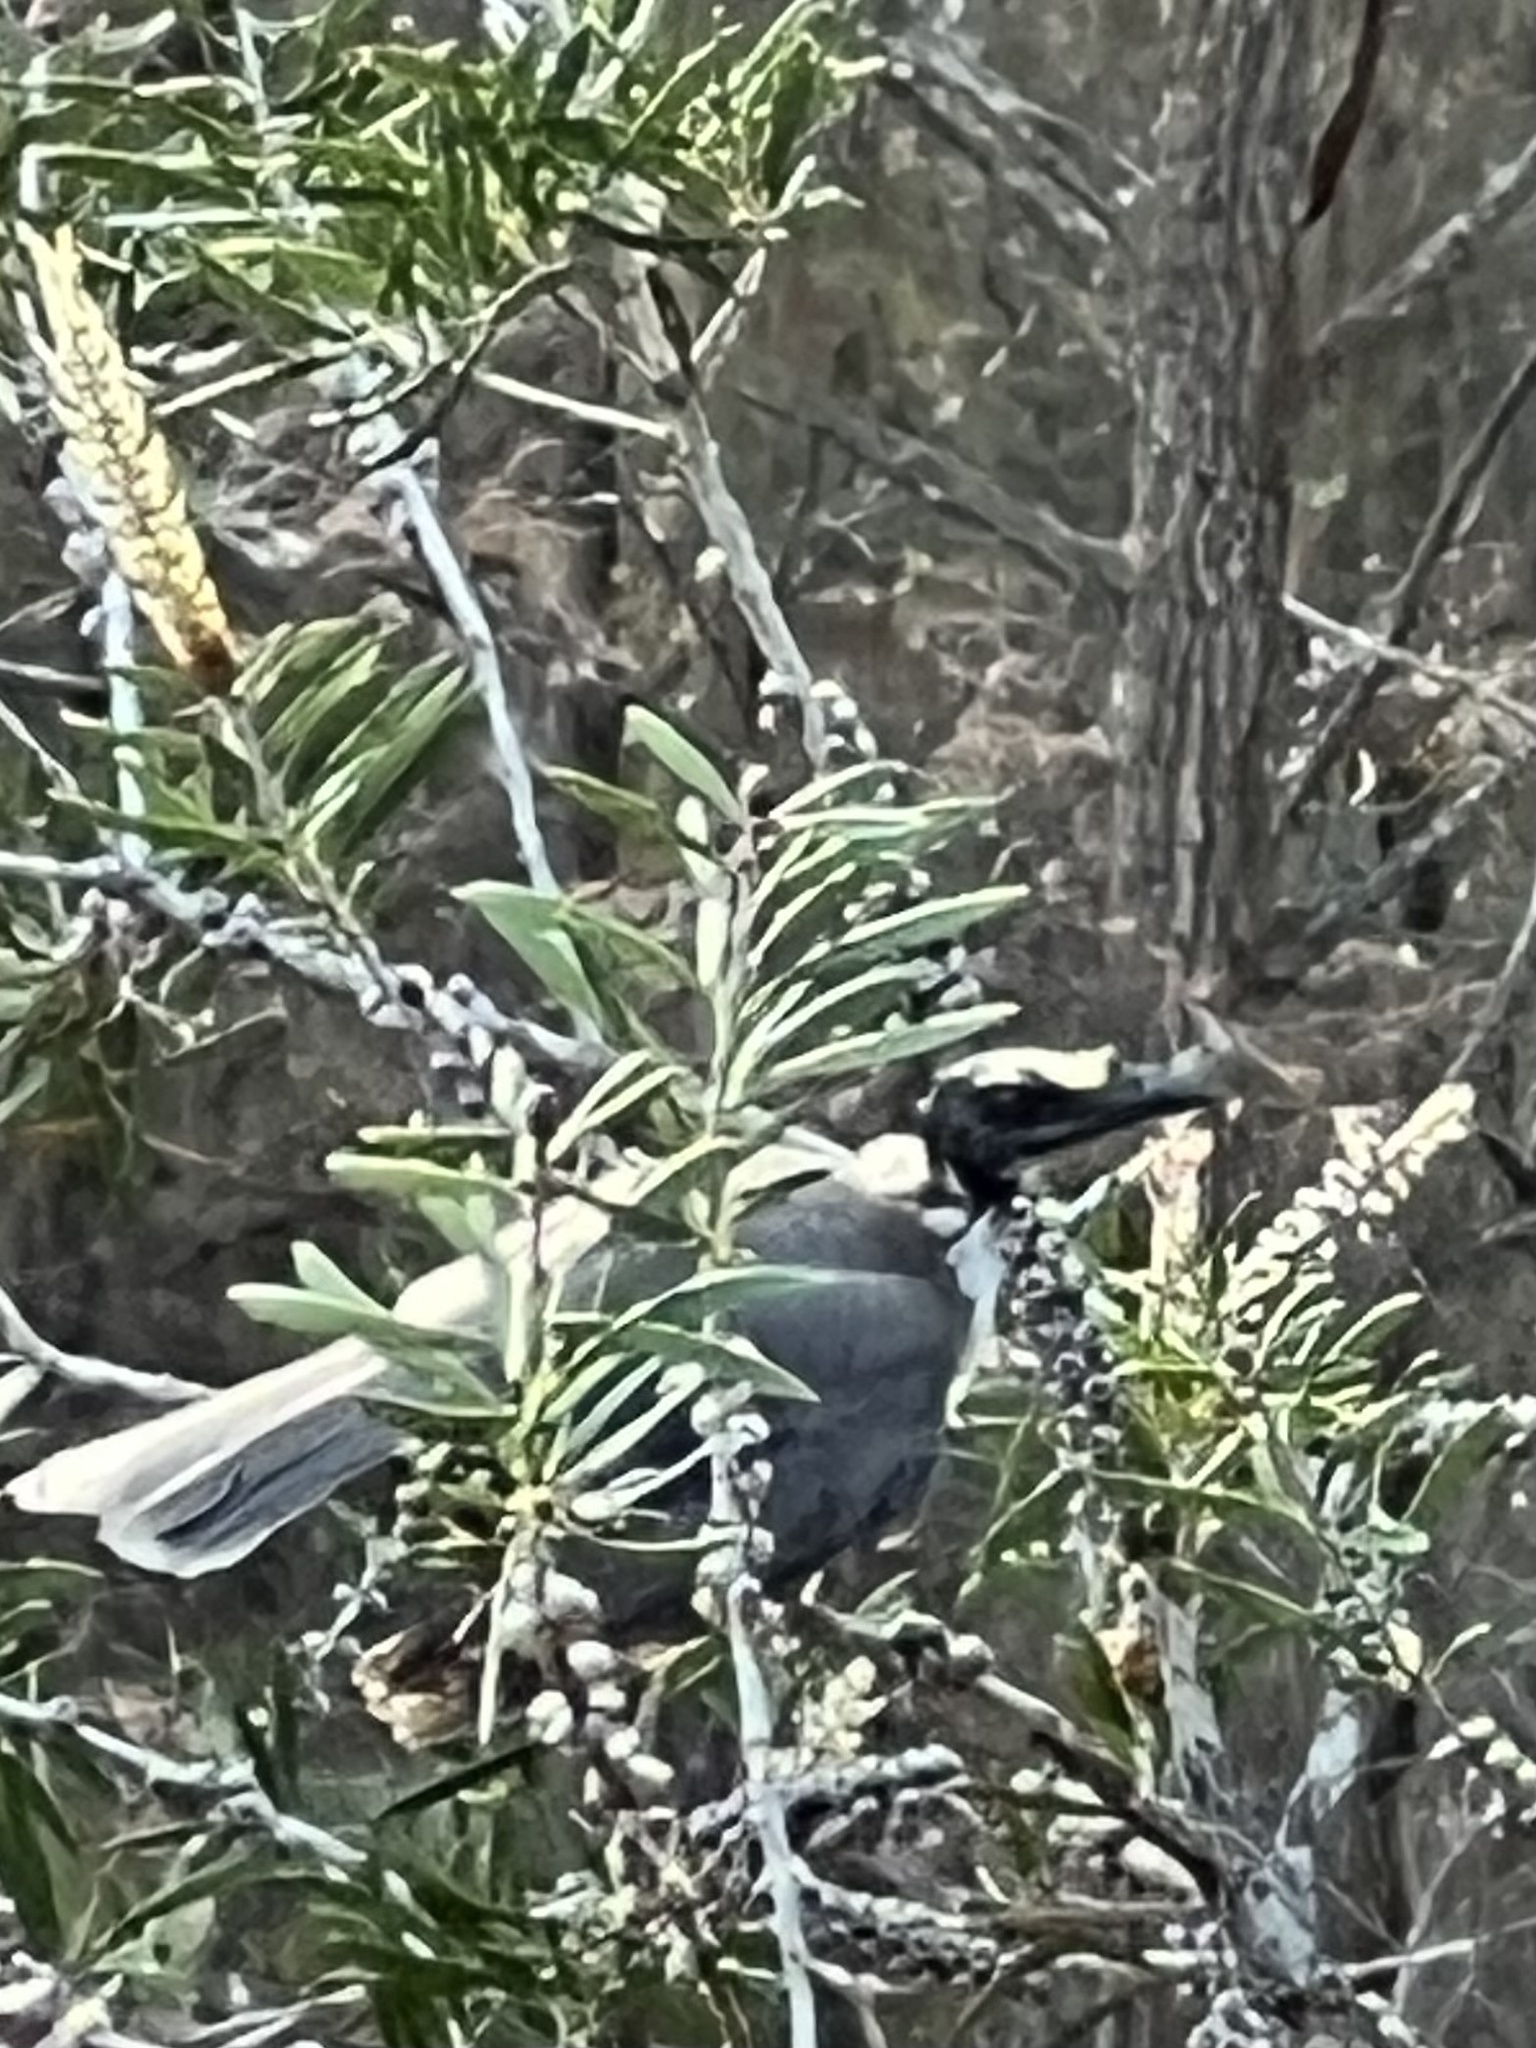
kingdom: Animalia
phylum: Chordata
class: Aves
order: Passeriformes
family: Meliphagidae
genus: Philemon
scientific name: Philemon corniculatus
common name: Noisy friarbird
